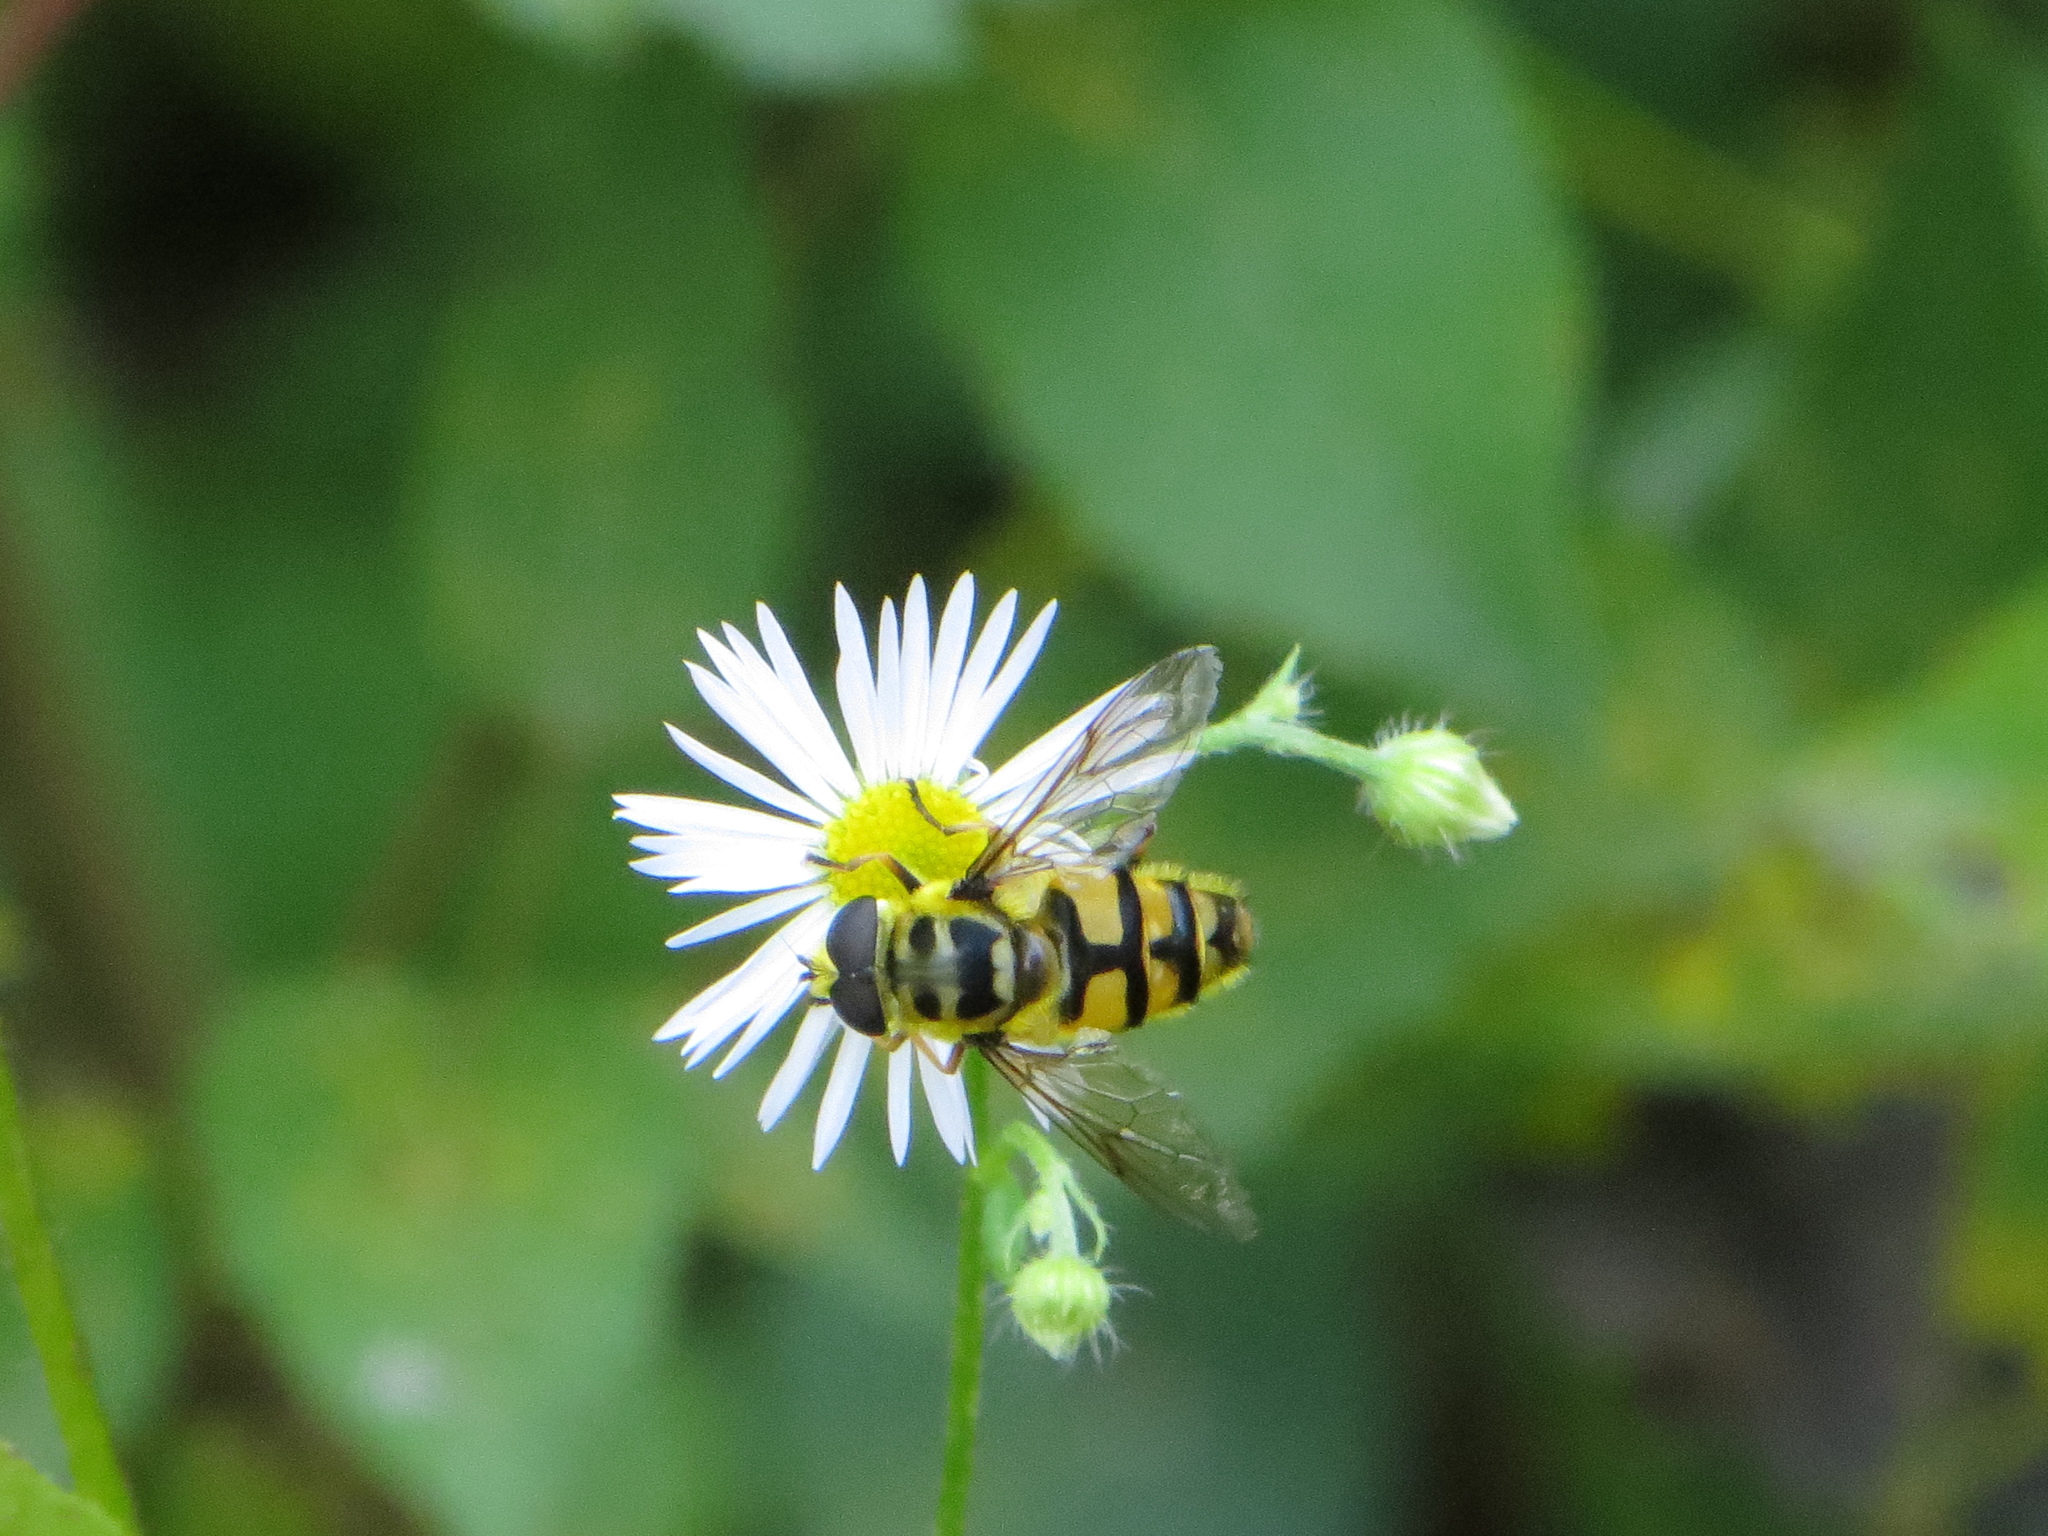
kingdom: Animalia
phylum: Arthropoda
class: Insecta
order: Diptera
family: Syrphidae
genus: Myathropa
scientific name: Myathropa florea
